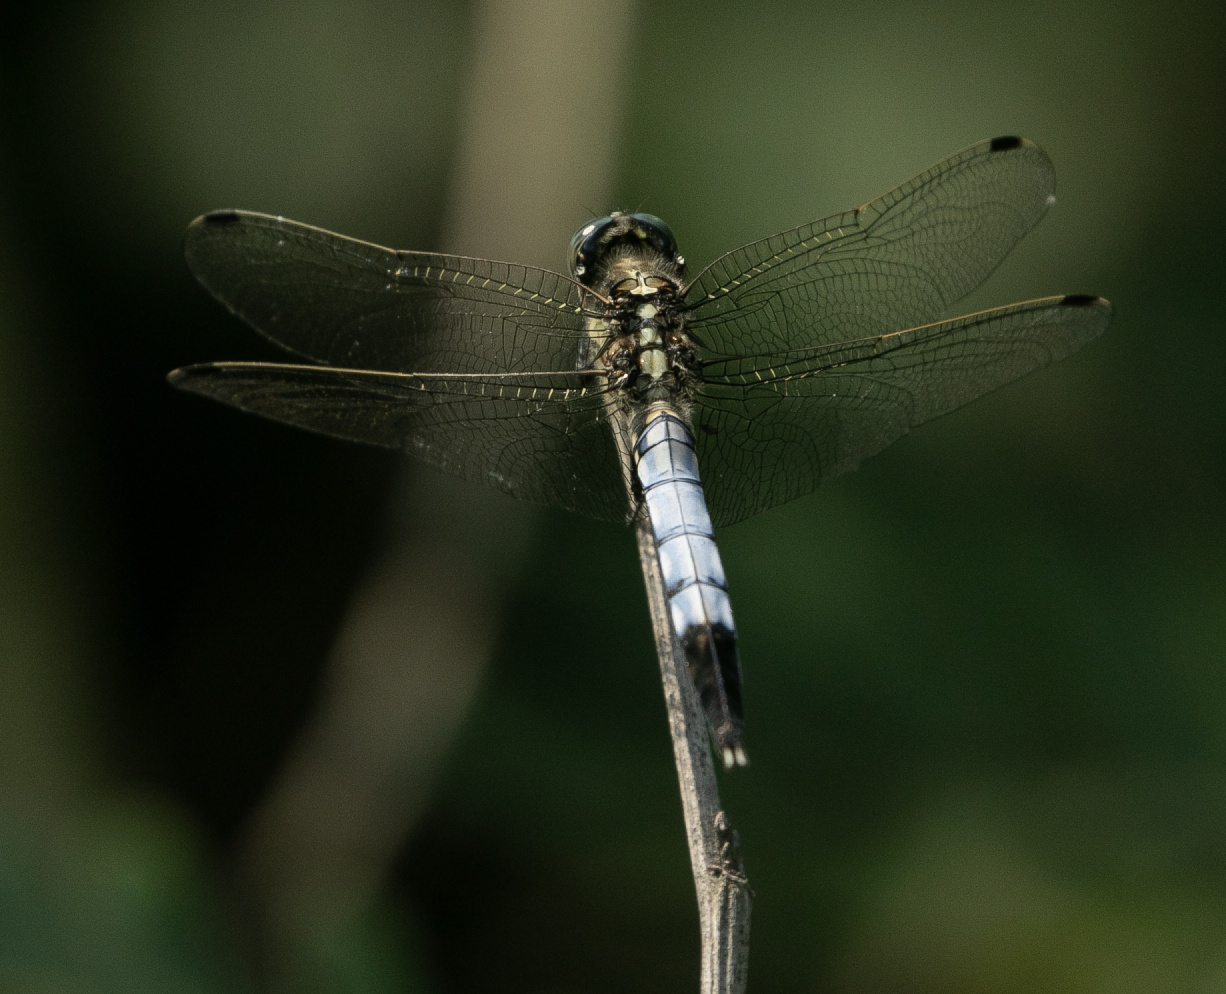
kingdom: Animalia
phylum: Arthropoda
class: Insecta
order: Odonata
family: Libellulidae
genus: Orthetrum
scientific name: Orthetrum albistylum
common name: White-tailed skimmer
